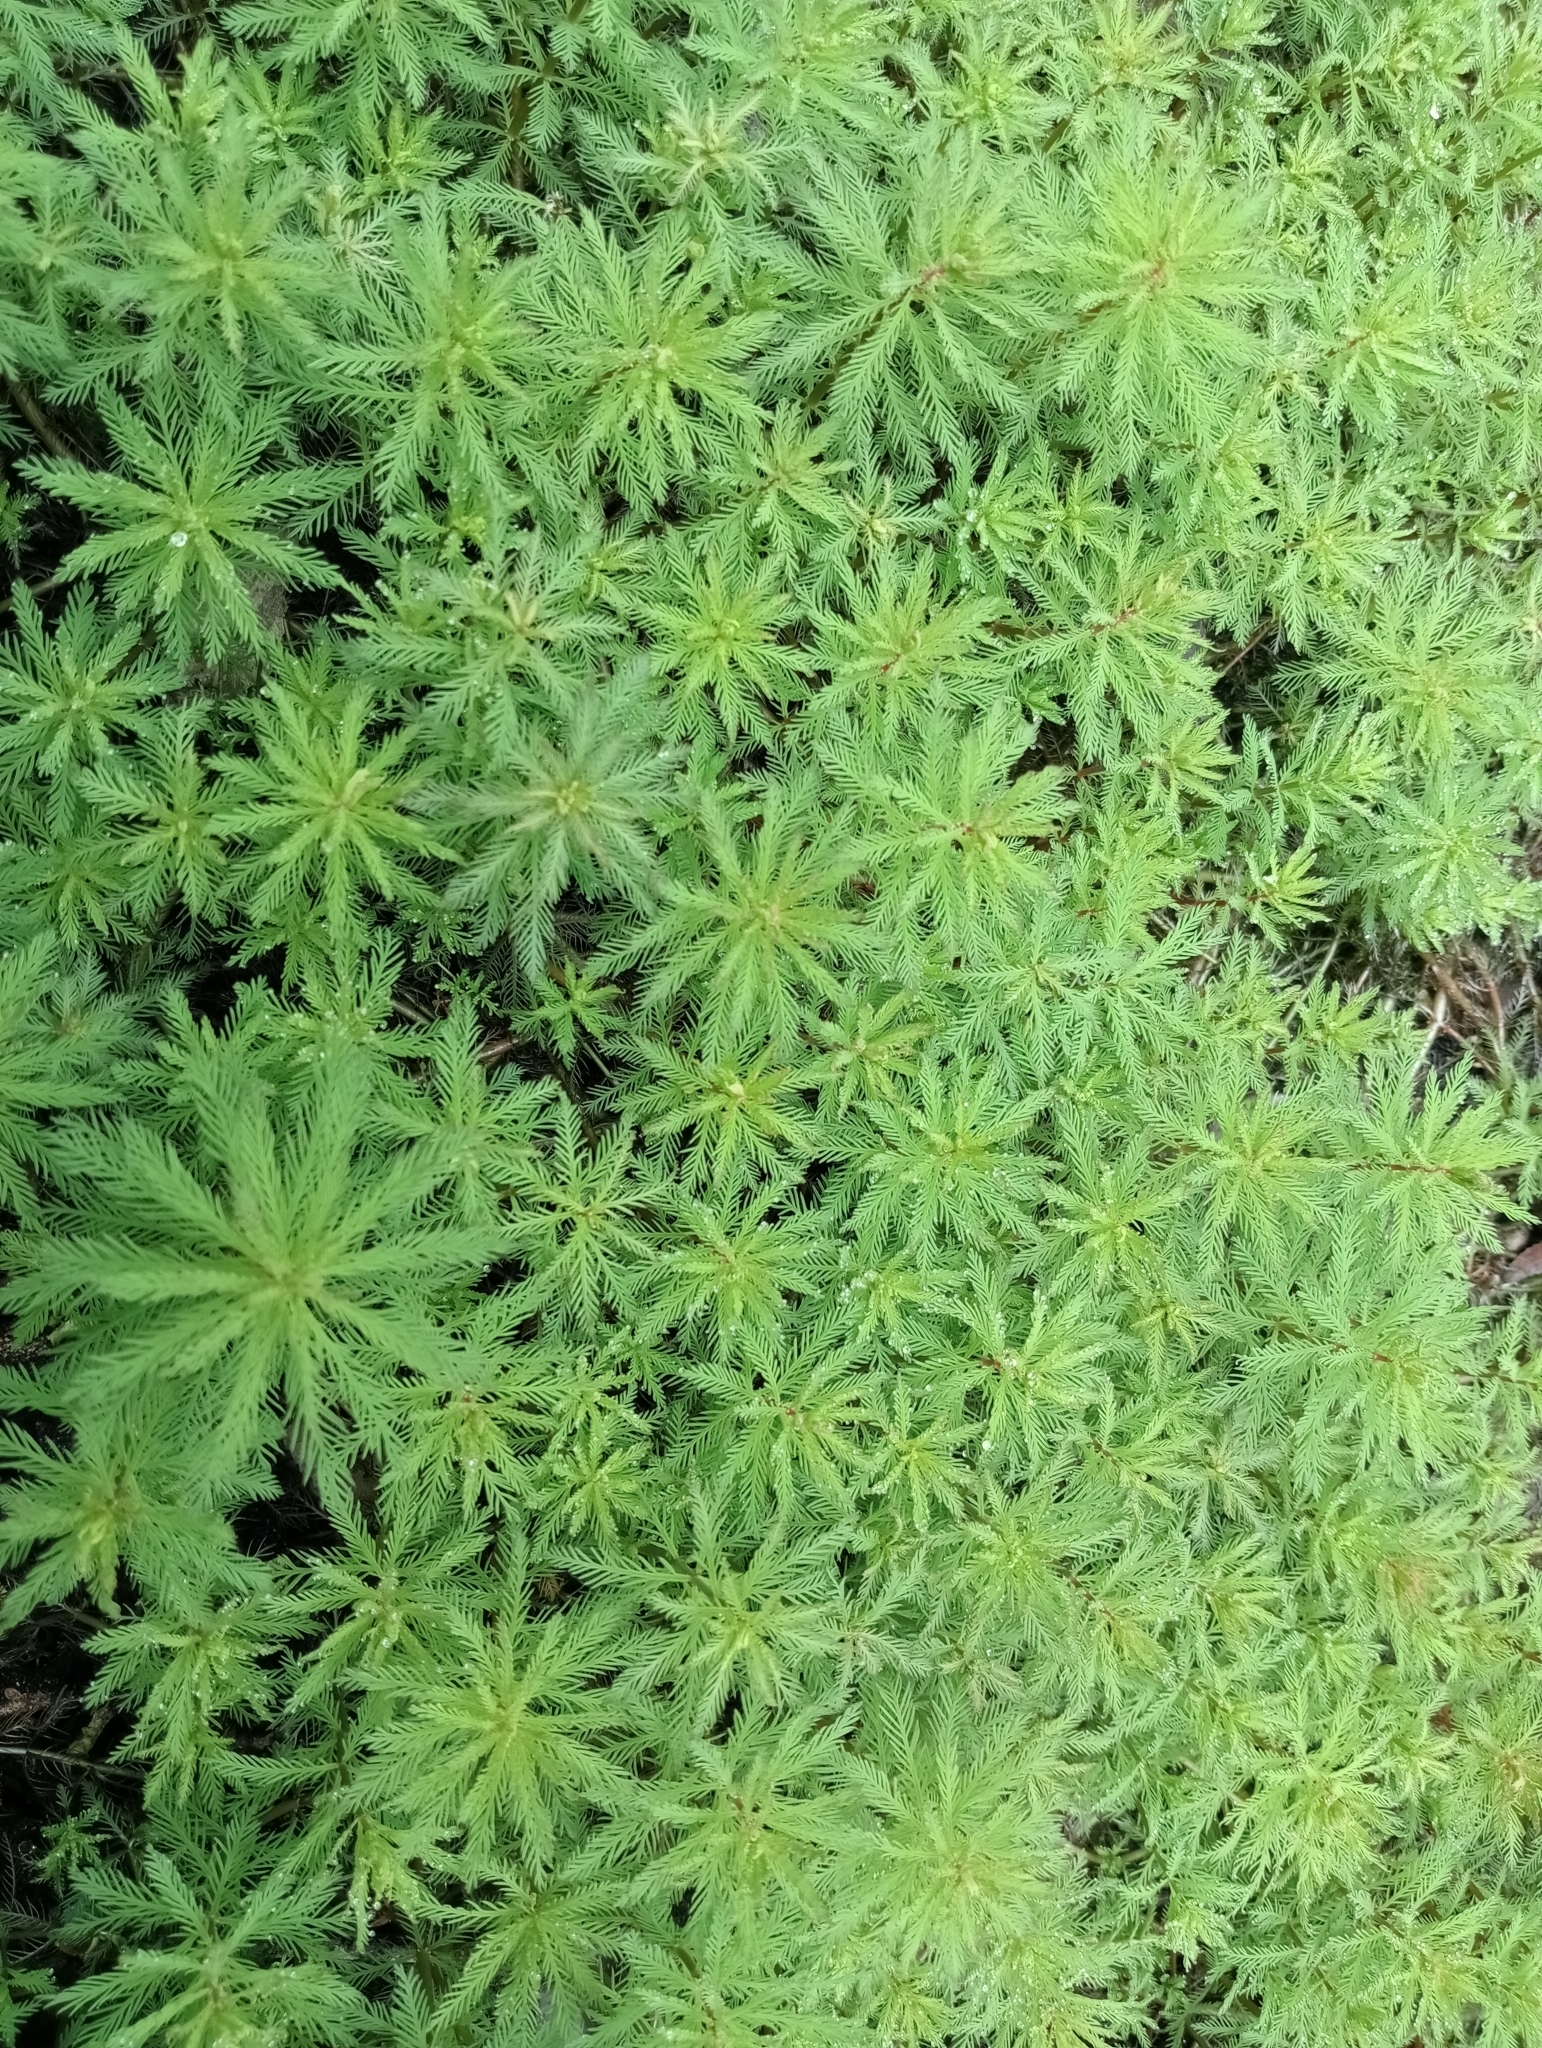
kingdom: Plantae
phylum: Tracheophyta
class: Magnoliopsida
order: Saxifragales
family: Haloragaceae
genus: Myriophyllum
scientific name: Myriophyllum robustum
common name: Stout water milfoil
